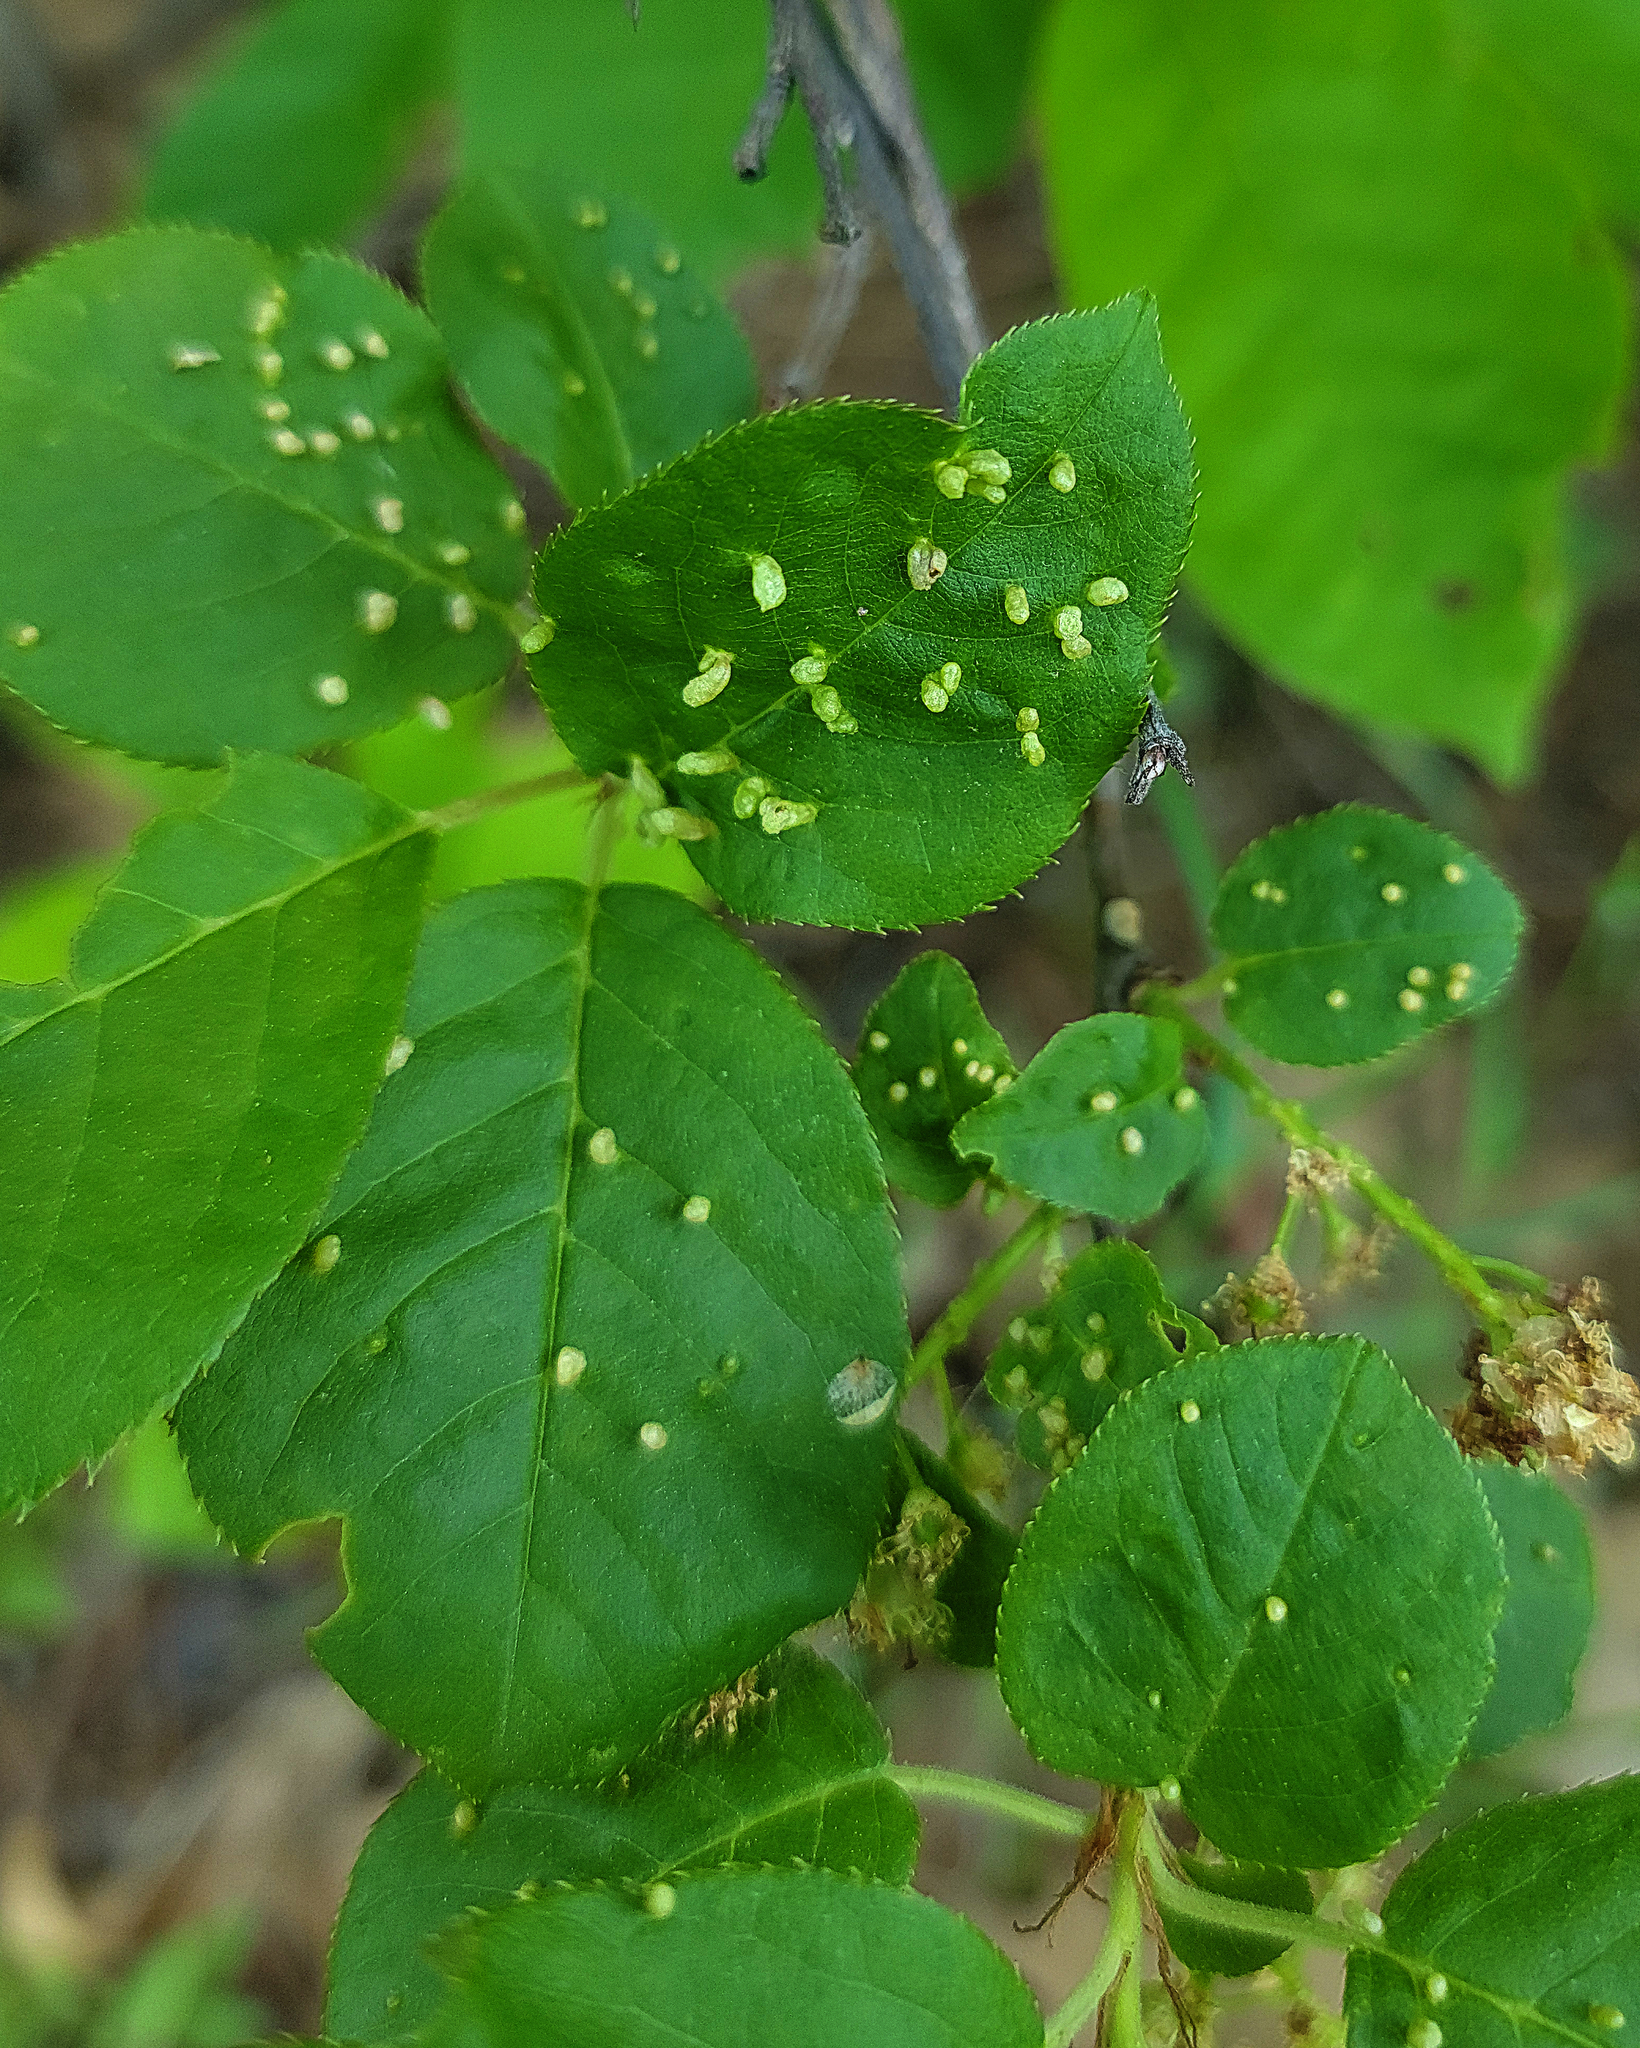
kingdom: Animalia
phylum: Arthropoda
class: Arachnida
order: Trombidiformes
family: Eriophyidae
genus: Eriophyes
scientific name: Eriophyes emarginatae
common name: Plum leaf gall mite
